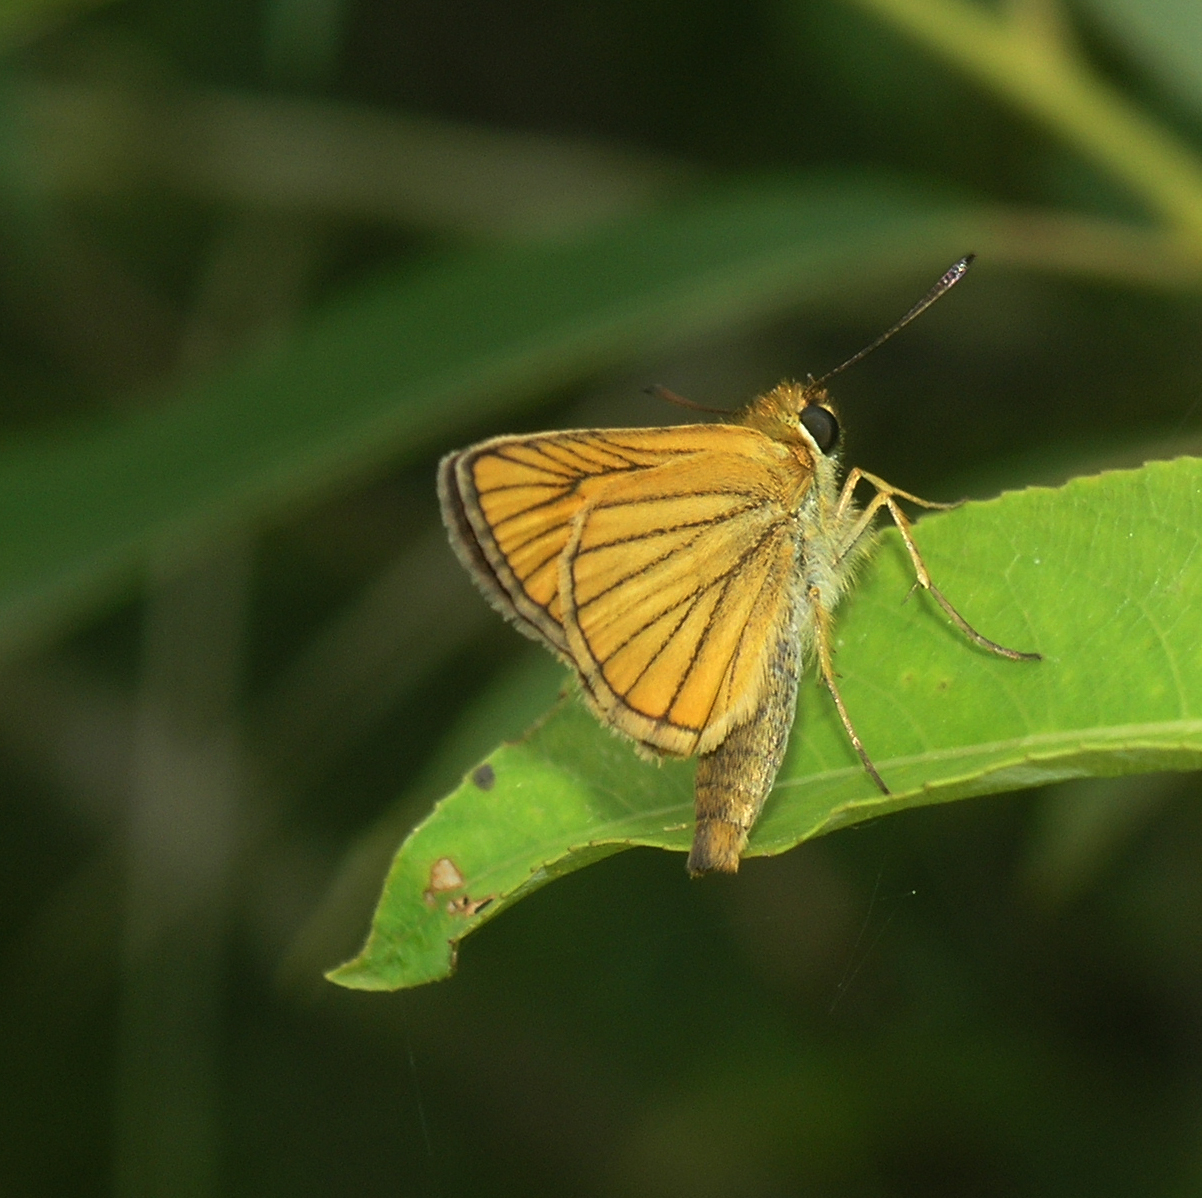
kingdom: Animalia
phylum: Arthropoda
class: Insecta
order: Lepidoptera
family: Hesperiidae
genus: Thymelicus
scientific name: Thymelicus sylvatica
